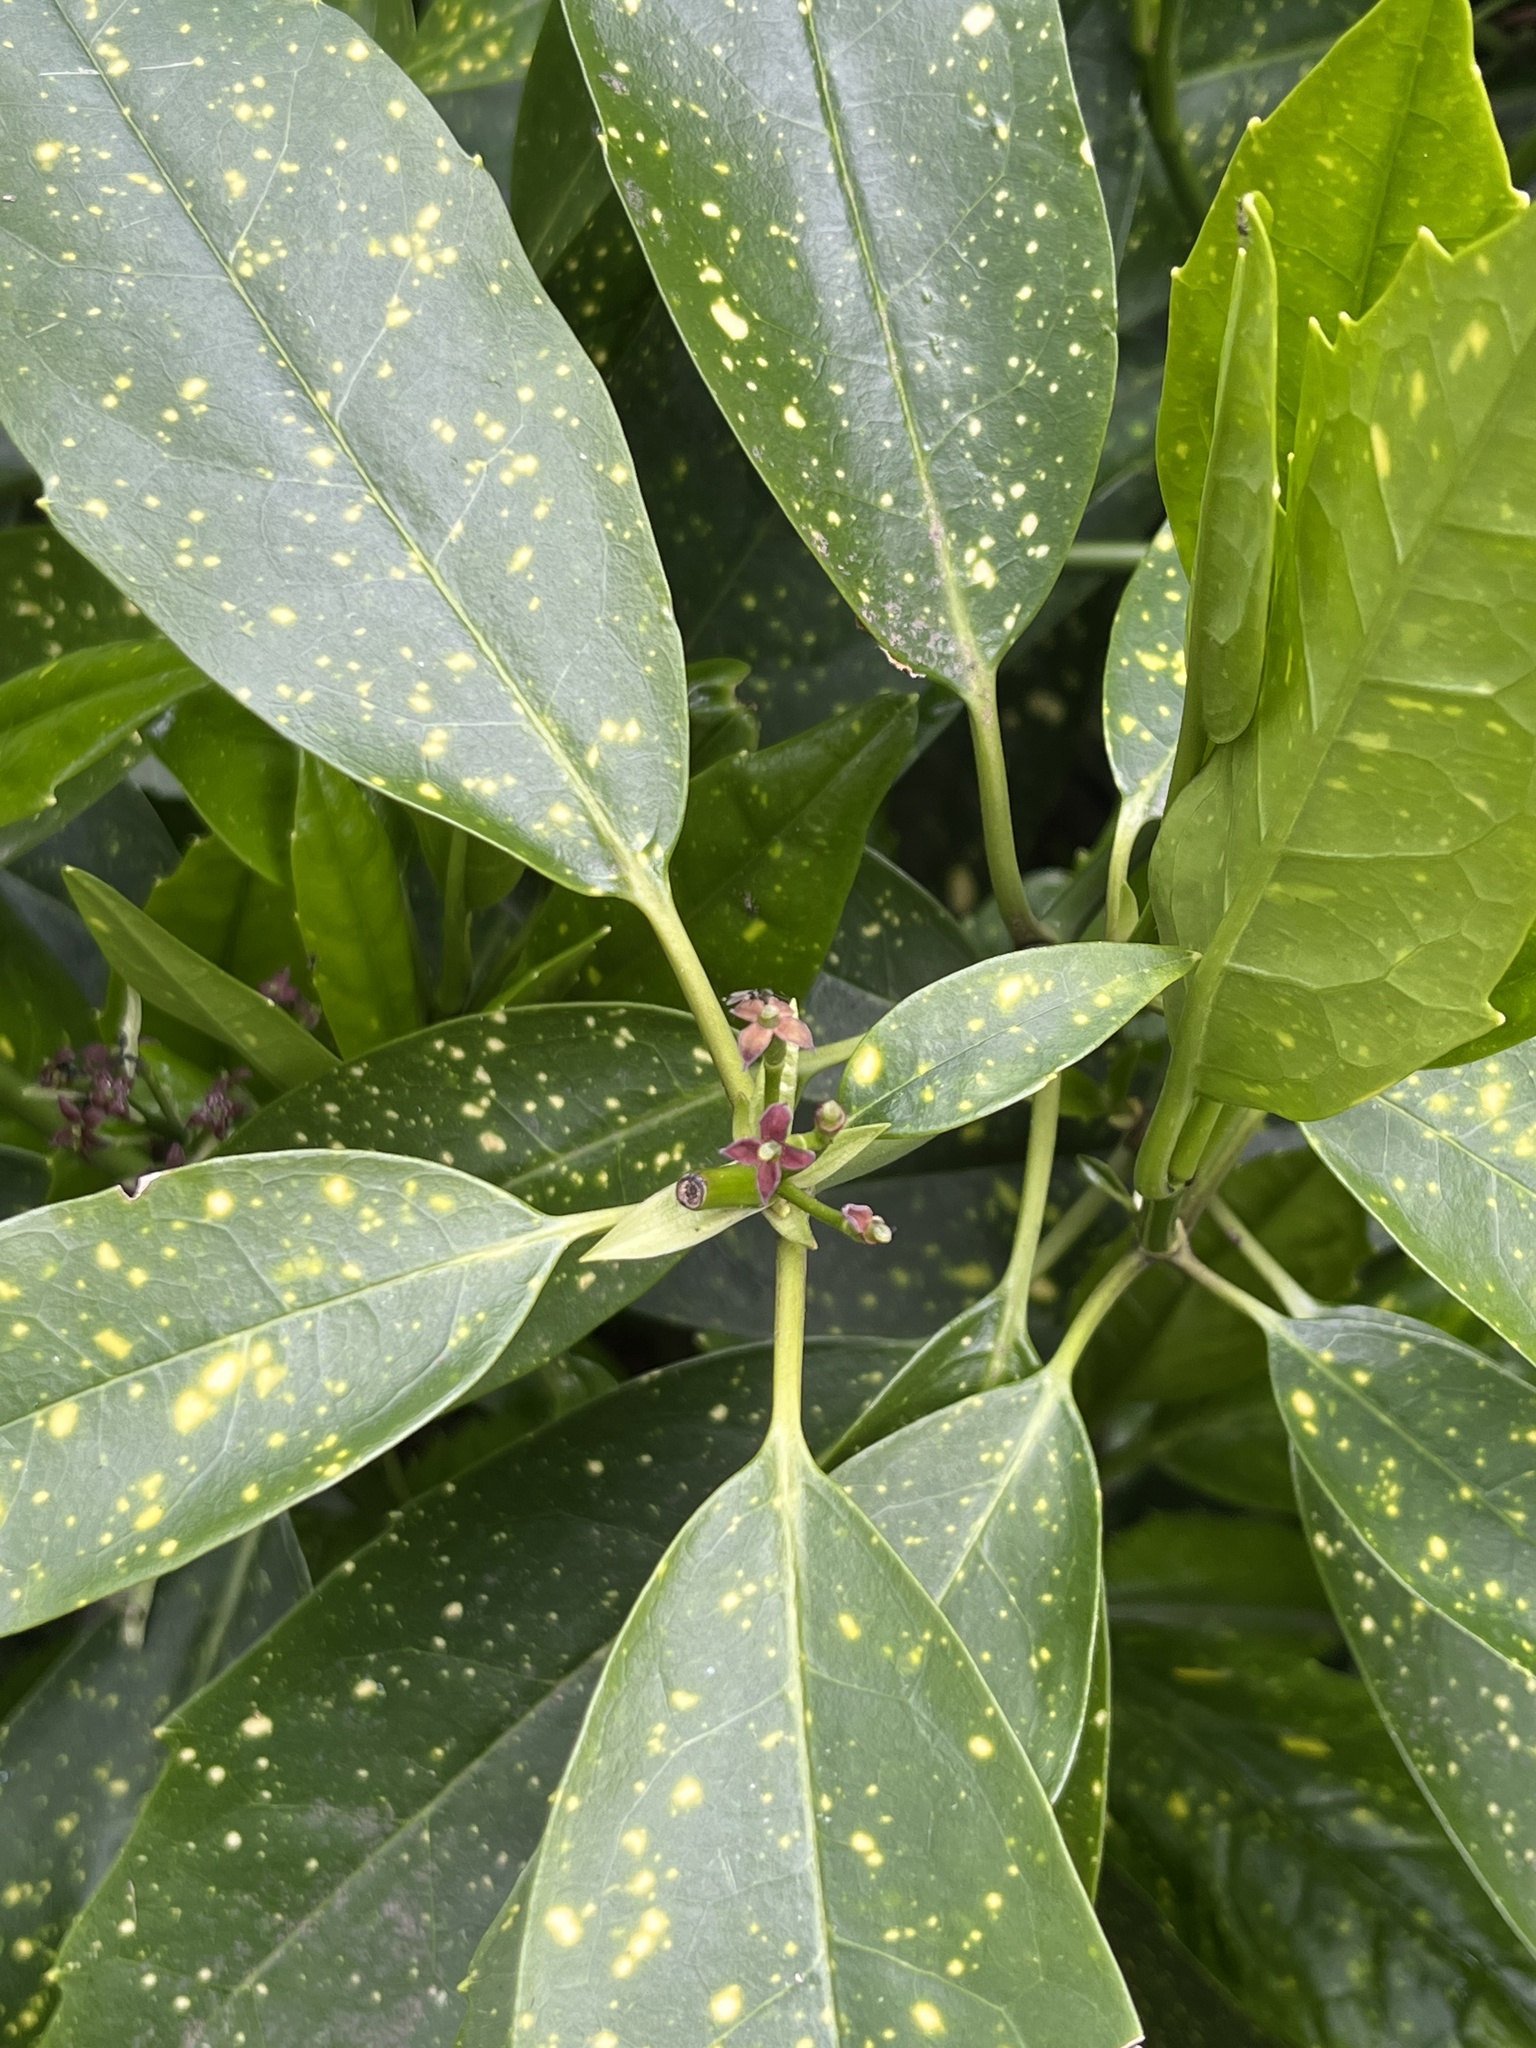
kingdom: Plantae
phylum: Tracheophyta
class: Magnoliopsida
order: Garryales
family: Garryaceae
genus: Aucuba
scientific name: Aucuba japonica
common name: Spotted-laurel
